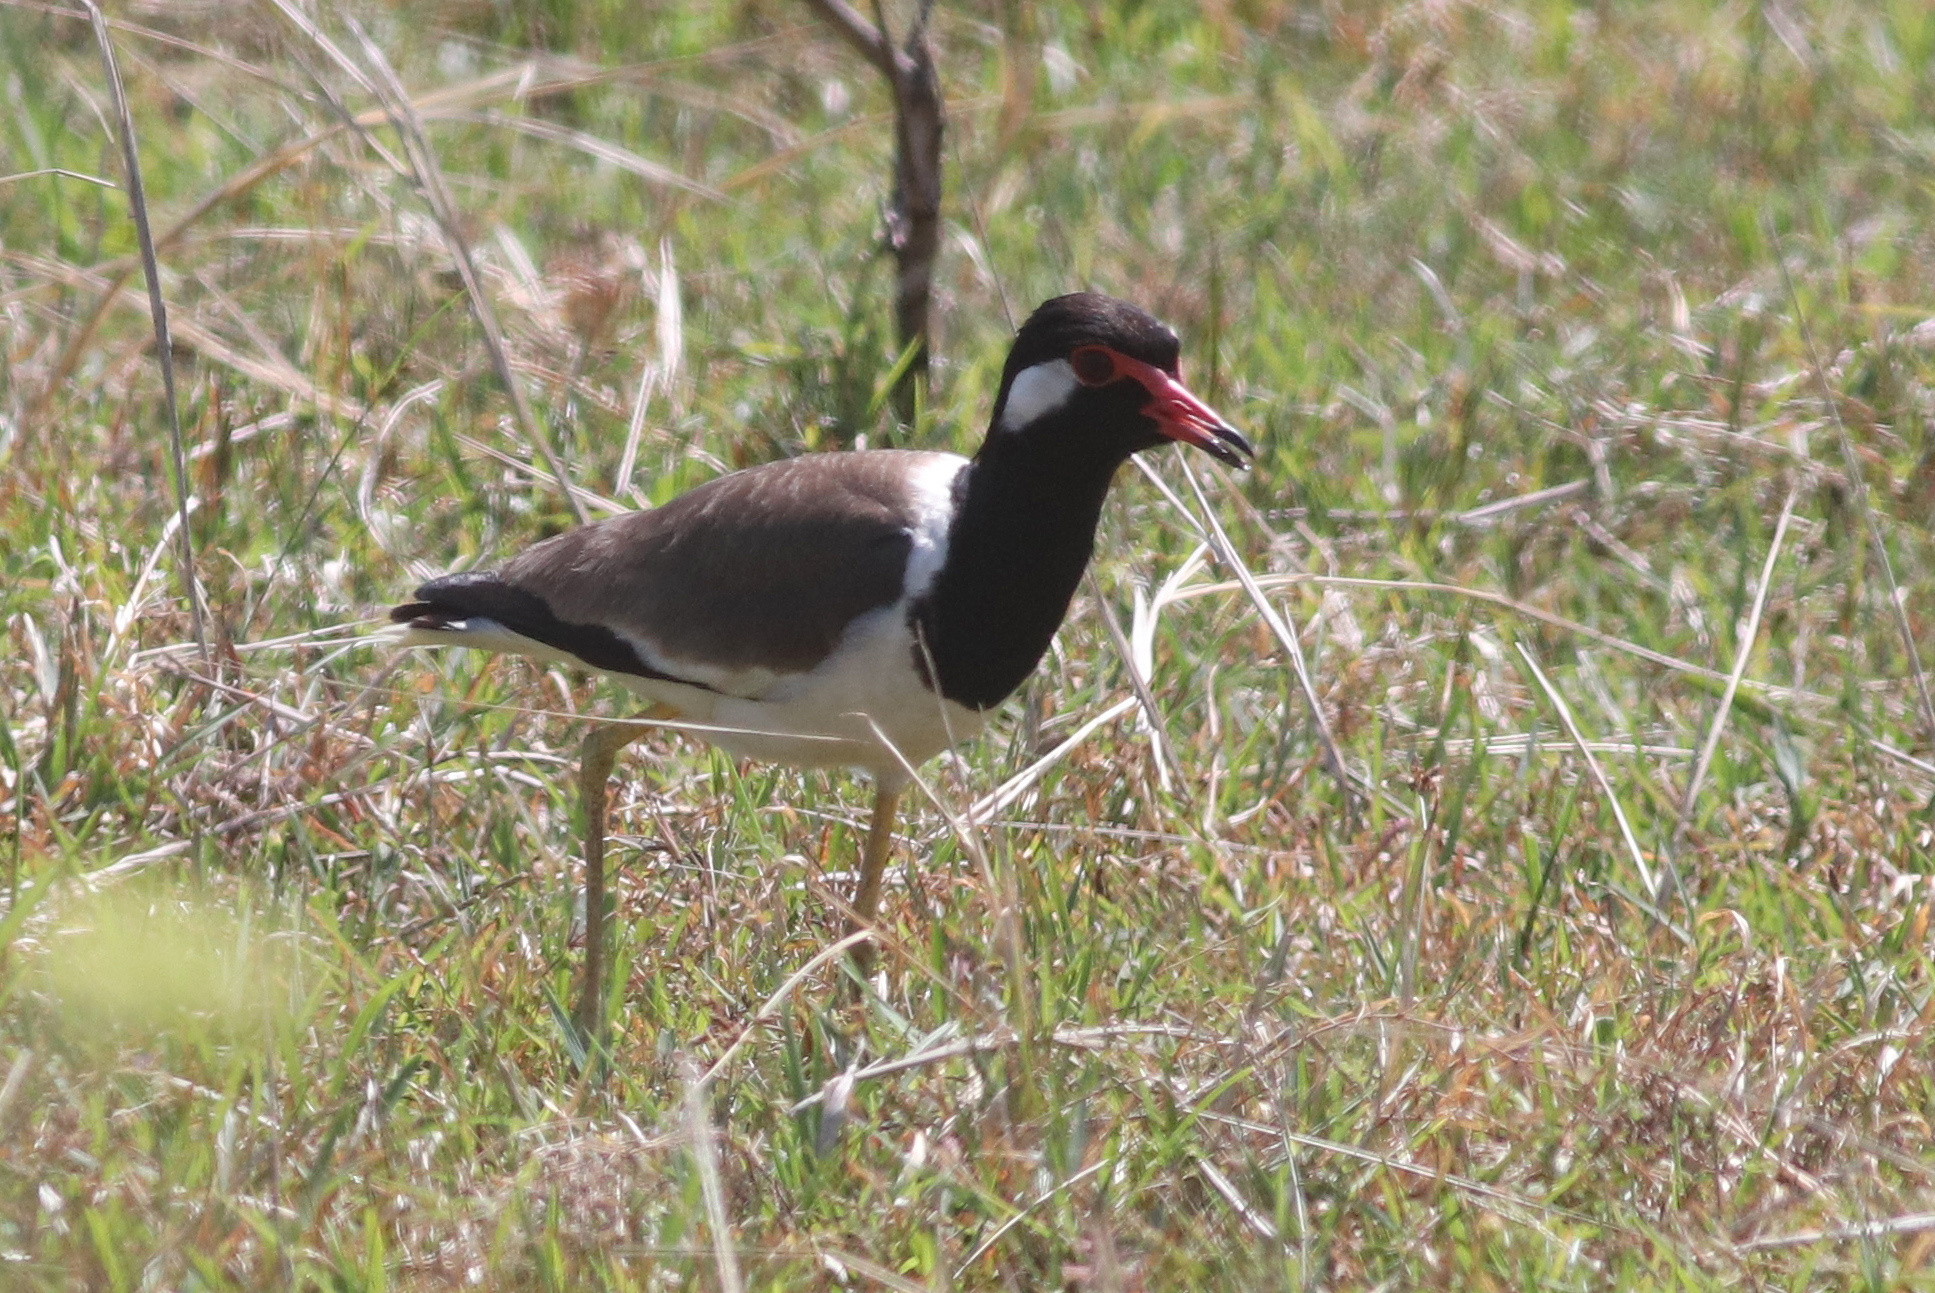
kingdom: Animalia
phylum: Chordata
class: Aves
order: Charadriiformes
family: Charadriidae
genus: Vanellus
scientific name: Vanellus indicus
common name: Red-wattled lapwing
